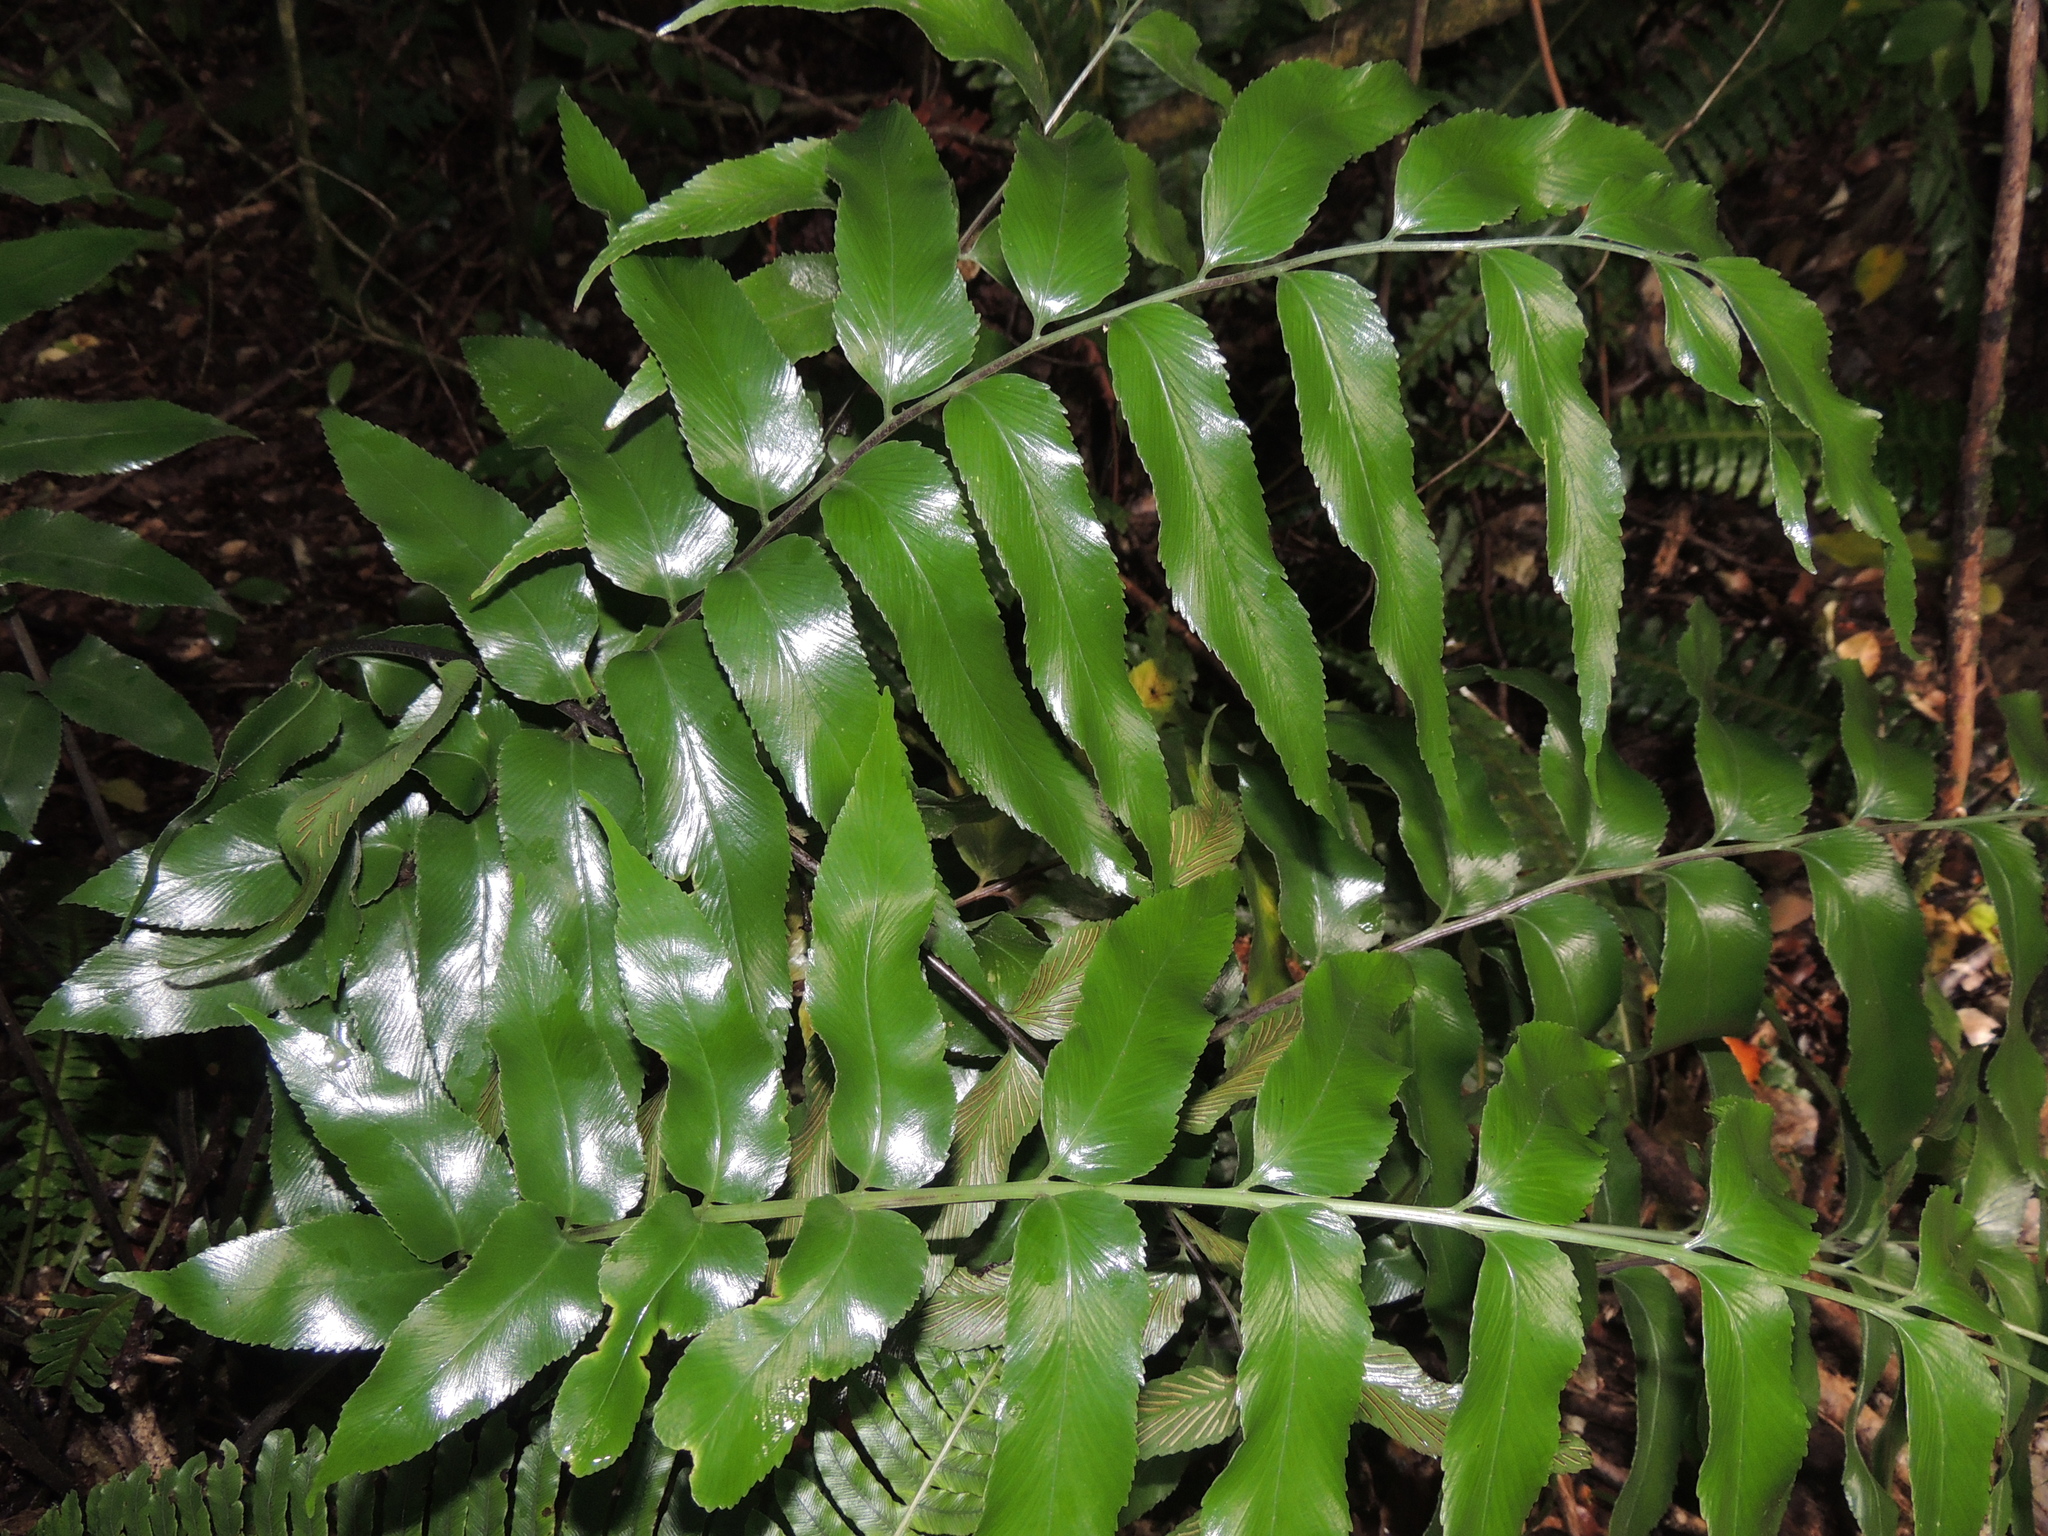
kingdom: Plantae
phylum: Tracheophyta
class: Polypodiopsida
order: Polypodiales
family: Aspleniaceae
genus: Asplenium
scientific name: Asplenium oblongifolium
